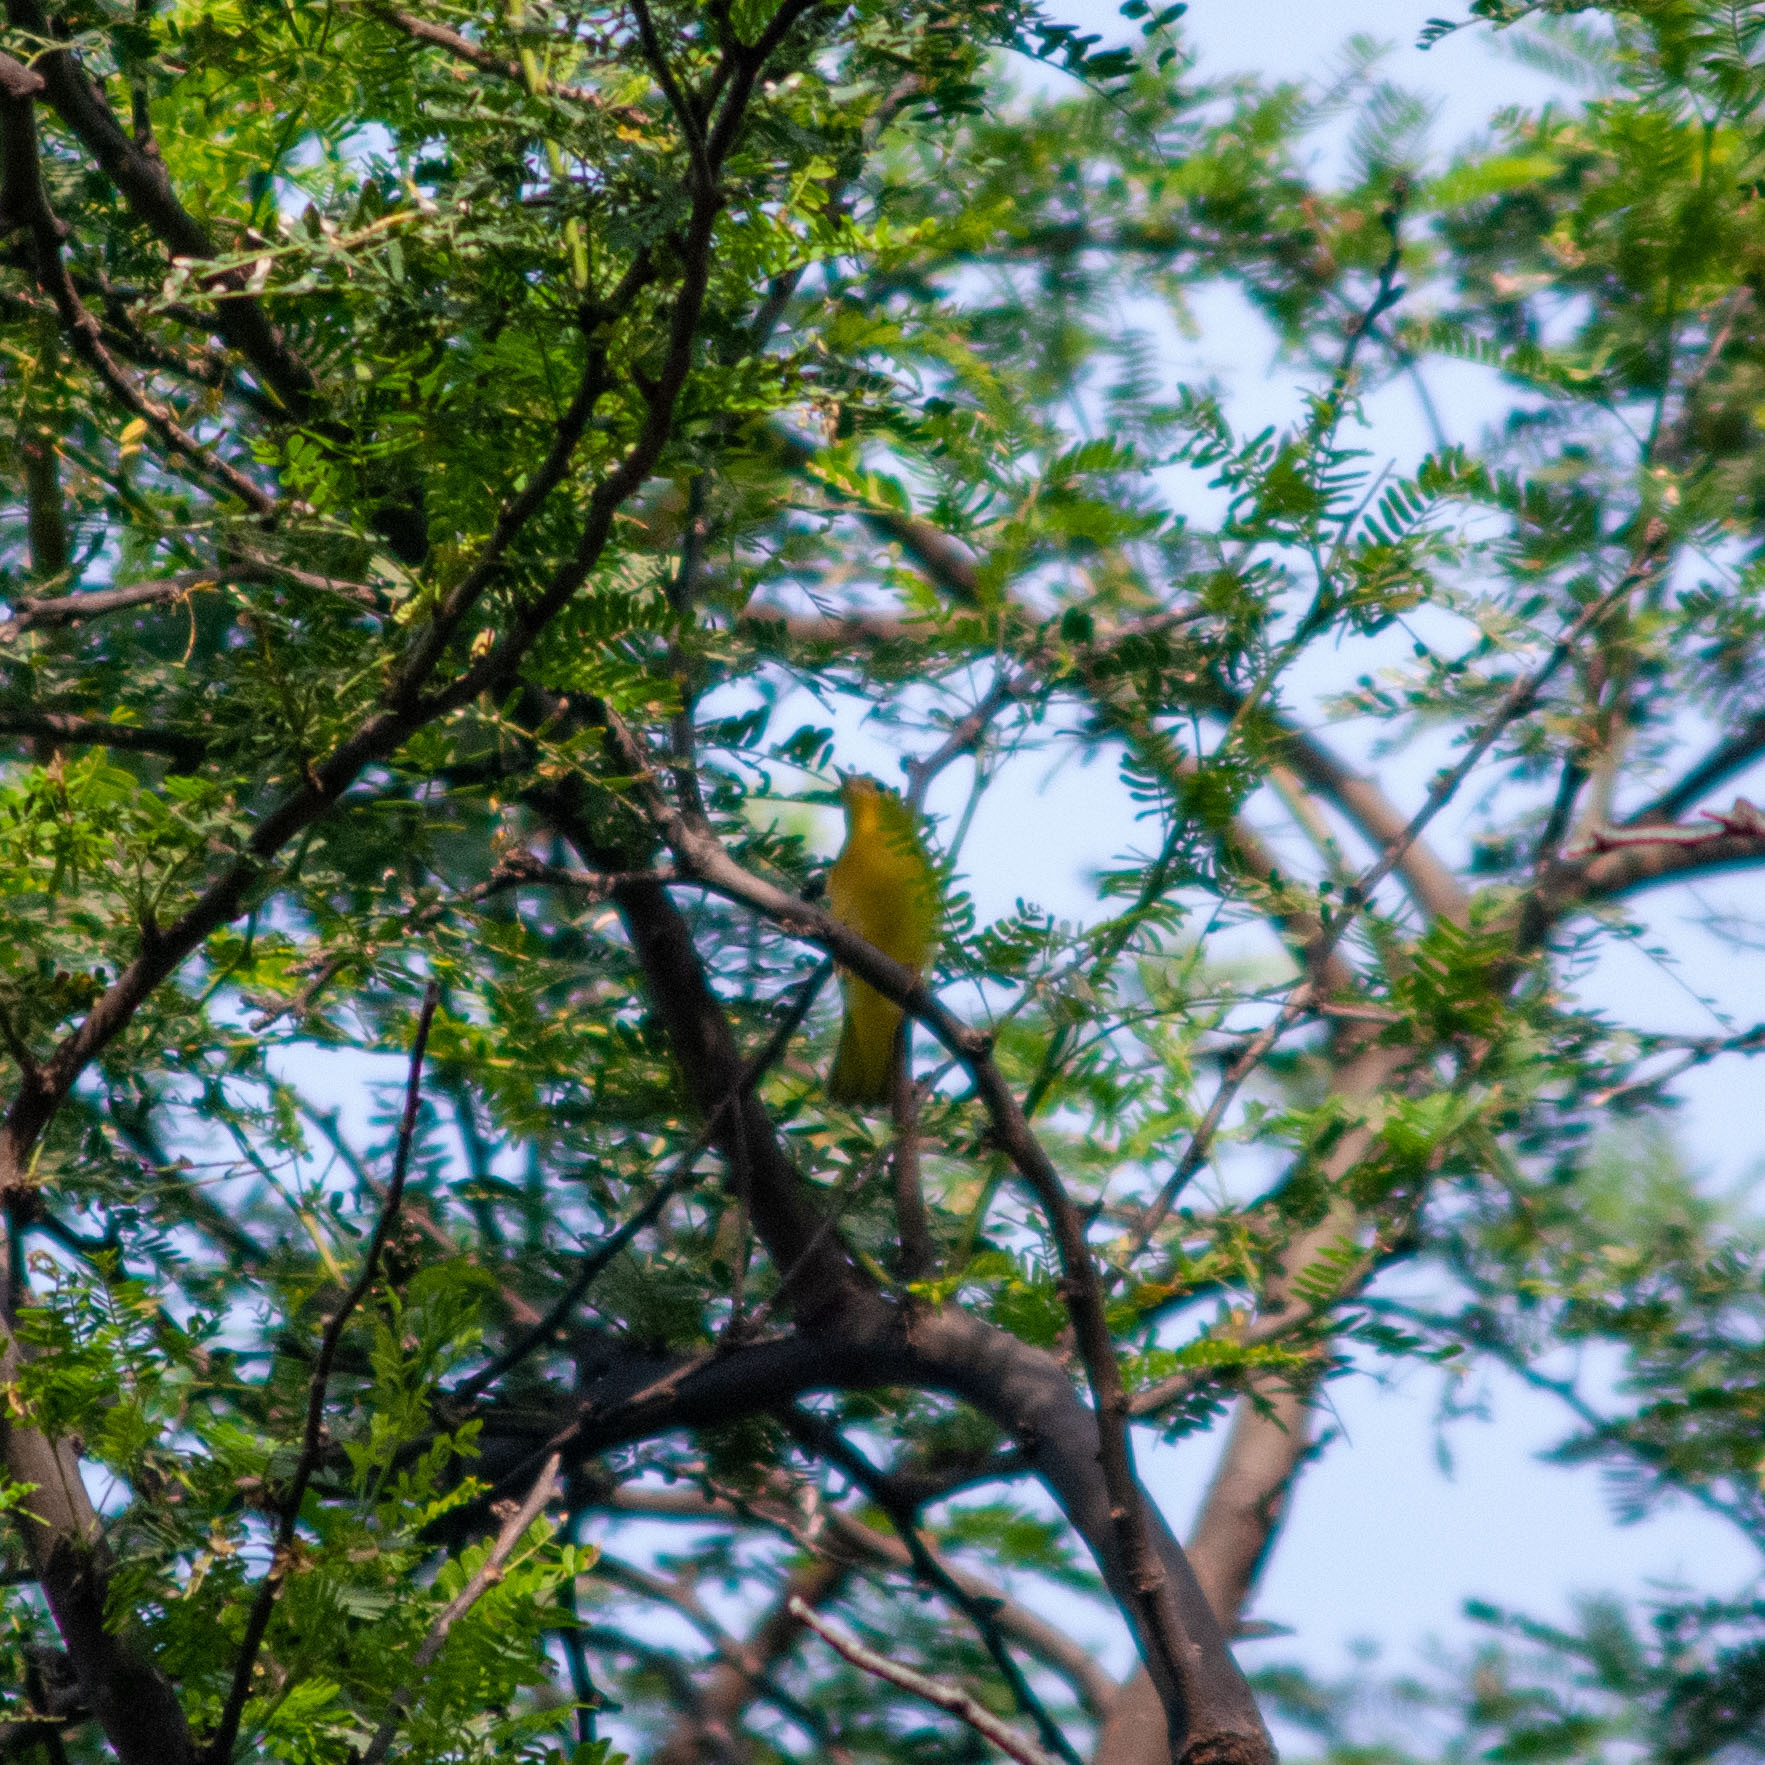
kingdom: Animalia
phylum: Chordata
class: Aves
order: Passeriformes
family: Parulidae
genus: Setophaga
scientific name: Setophaga petechia
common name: Yellow warbler
